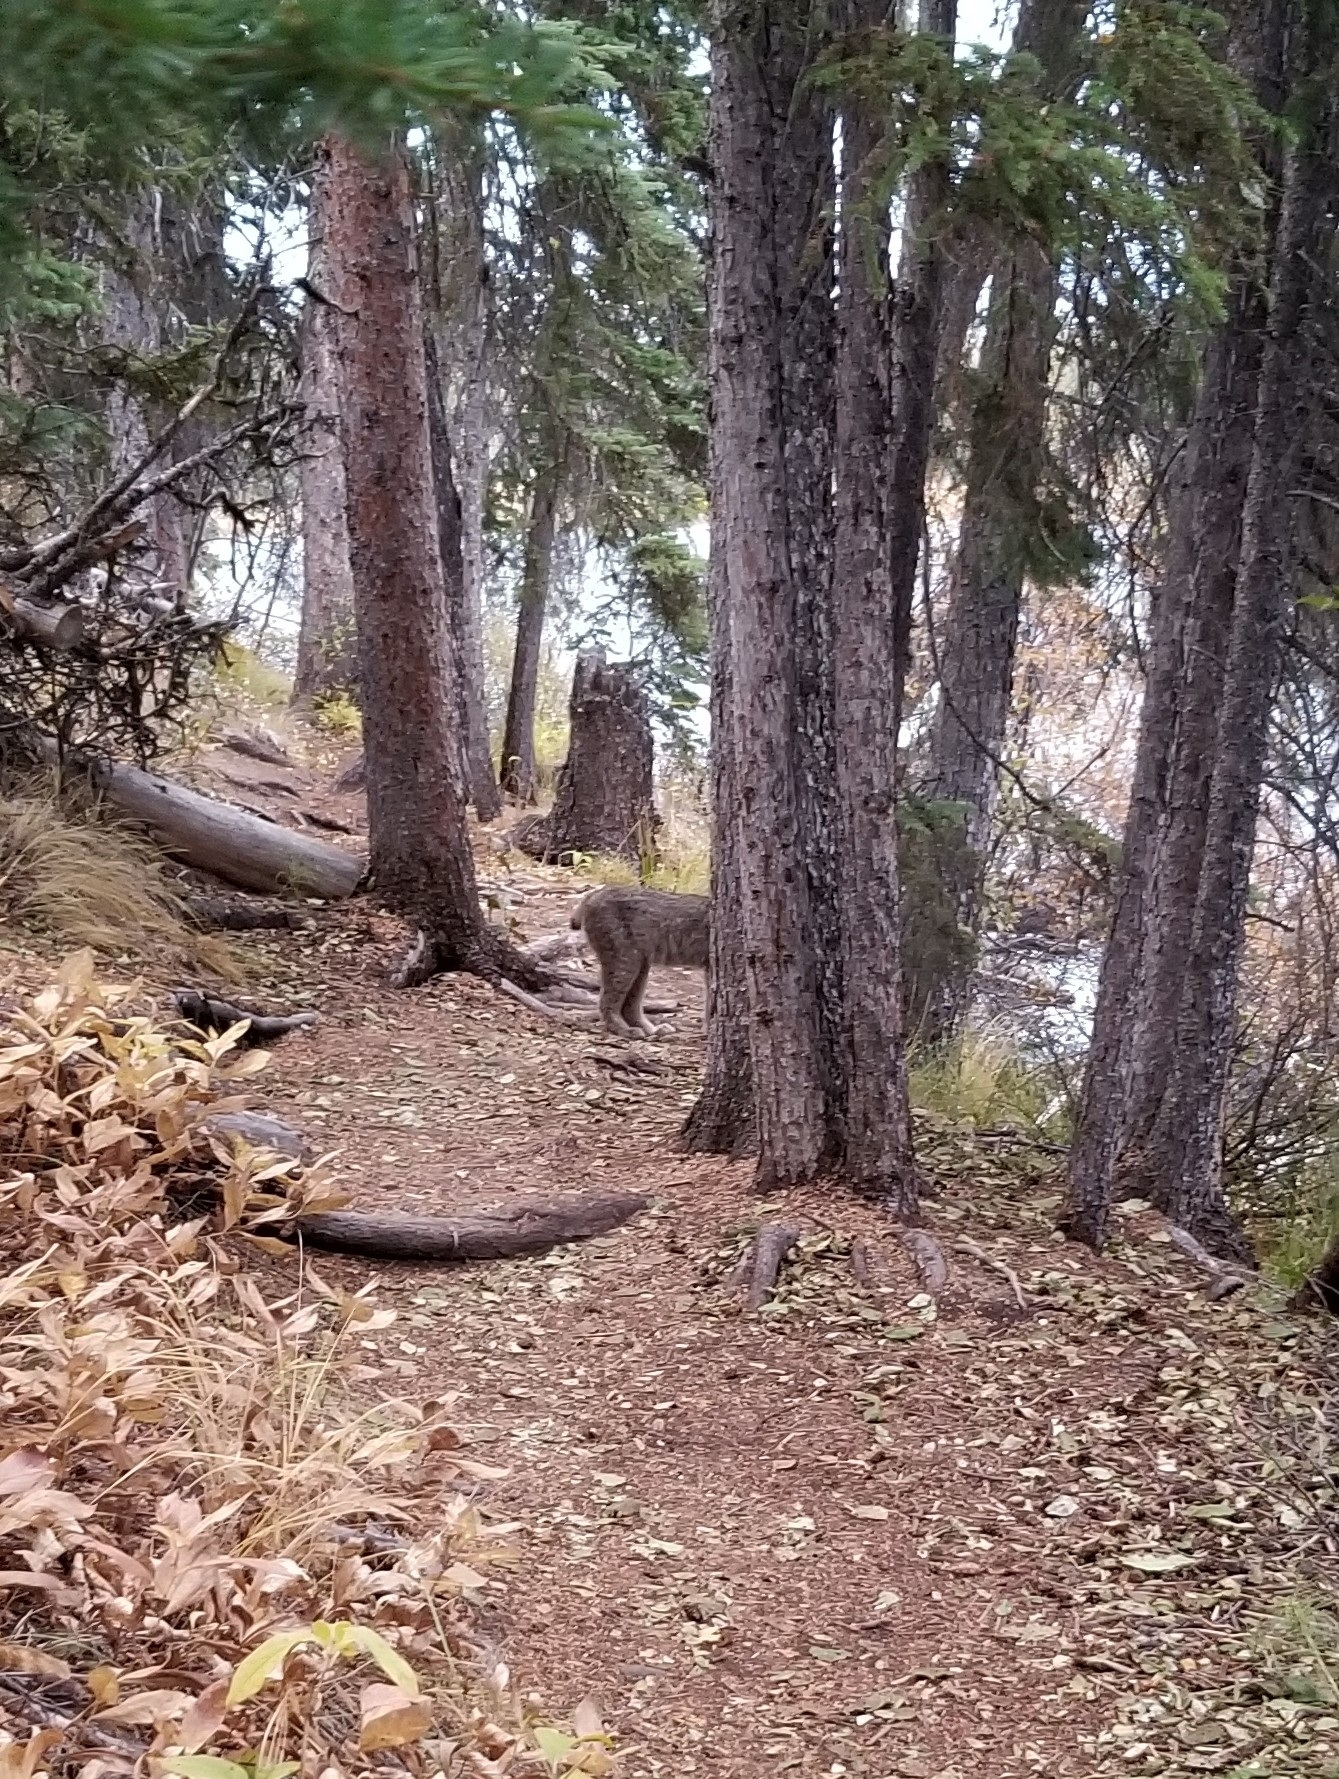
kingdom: Animalia
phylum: Chordata
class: Mammalia
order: Carnivora
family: Felidae
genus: Lynx
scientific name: Lynx canadensis
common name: Canadian lynx
